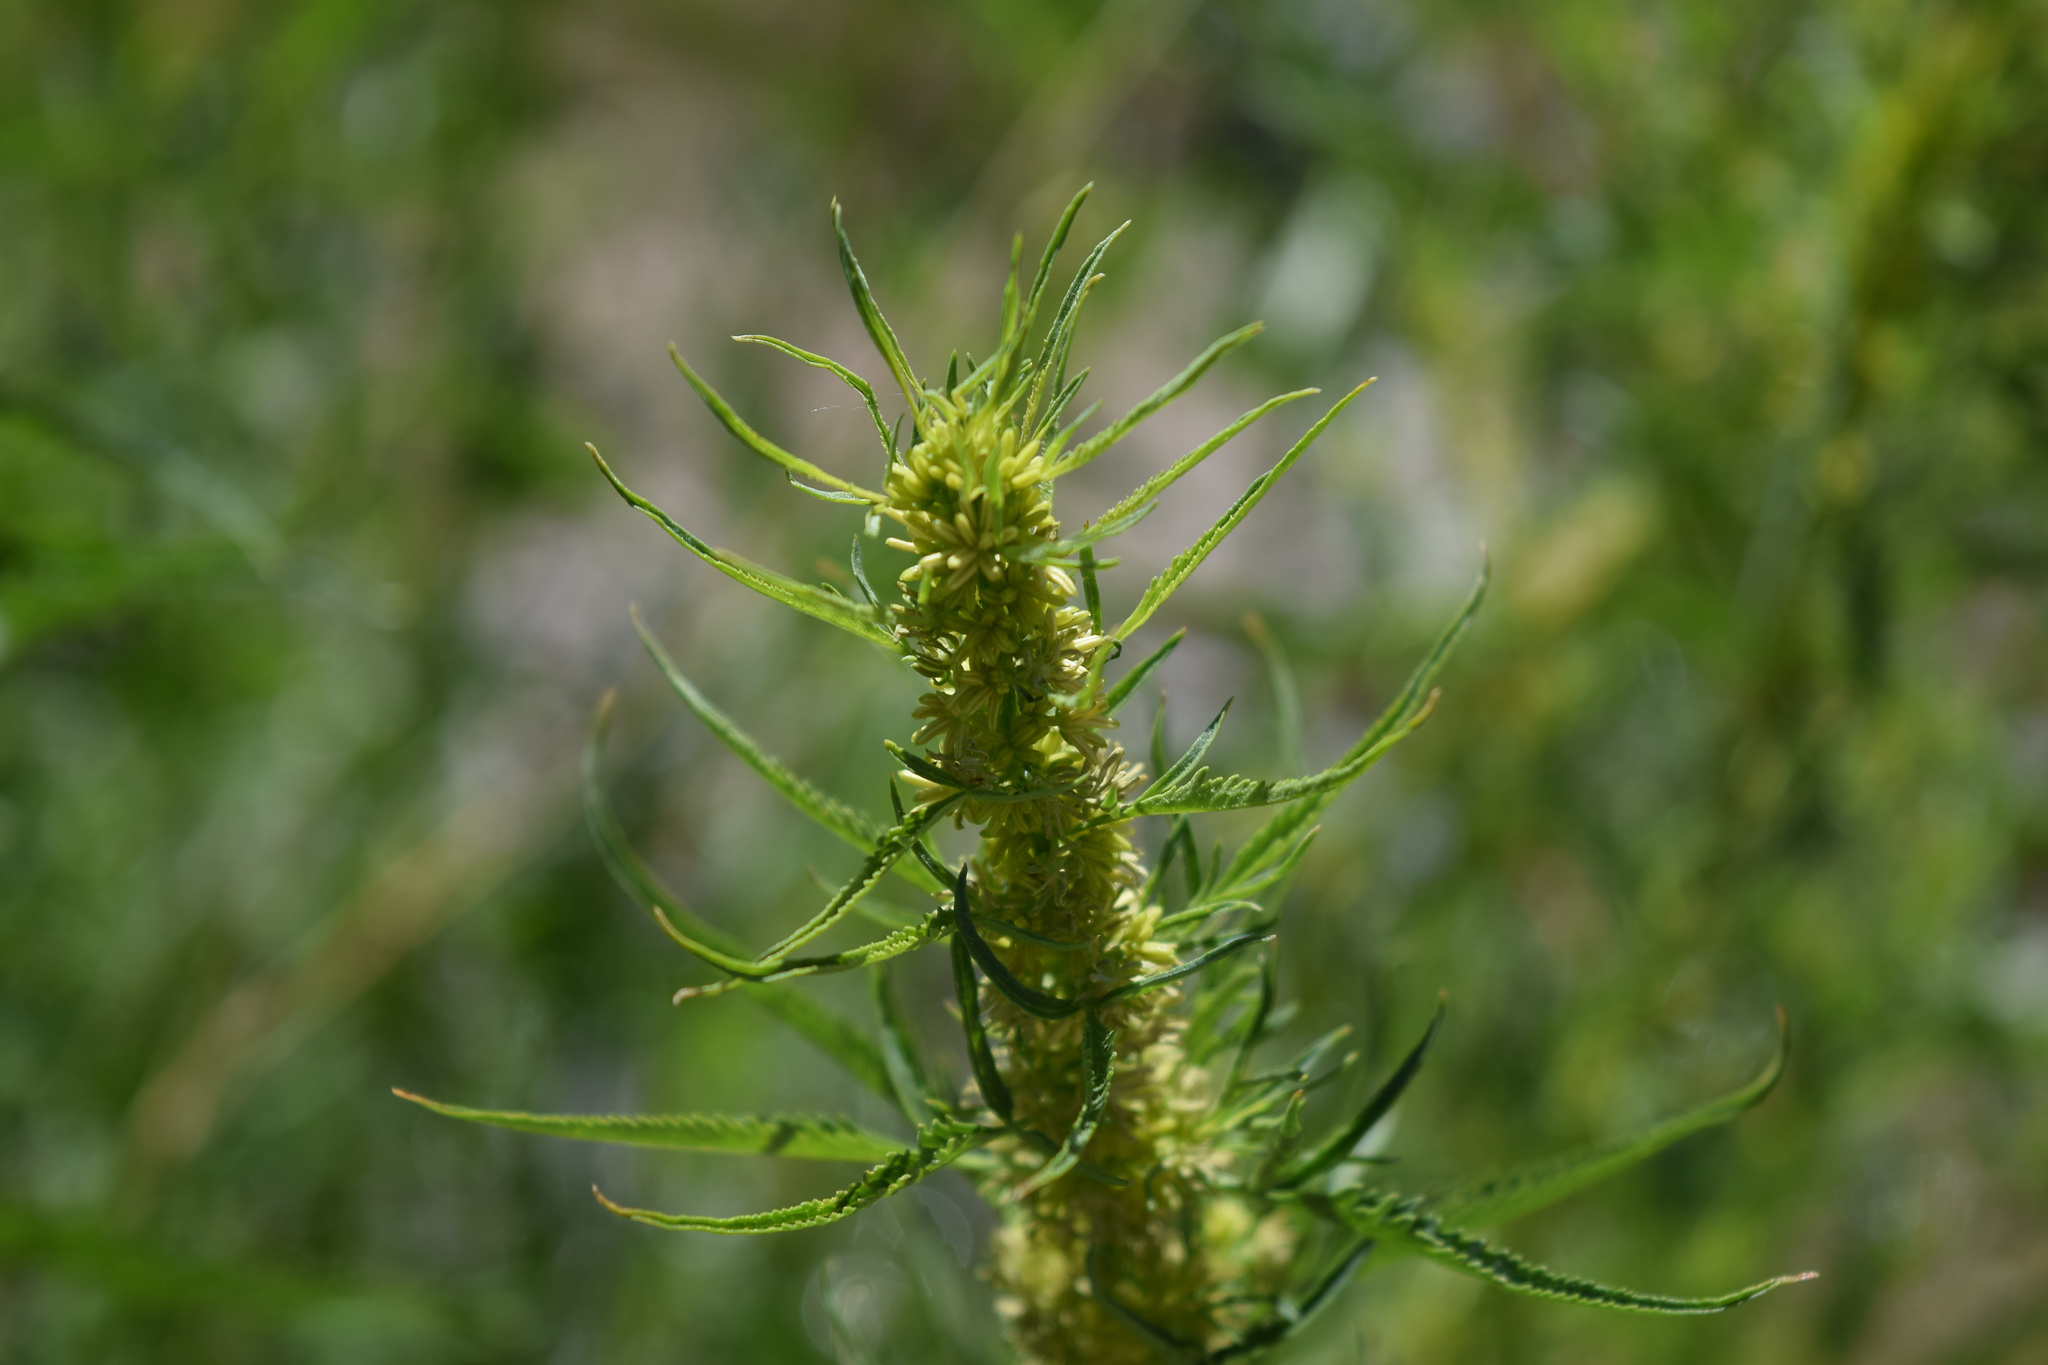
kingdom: Plantae
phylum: Tracheophyta
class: Magnoliopsida
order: Cucurbitales
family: Datiscaceae
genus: Datisca
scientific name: Datisca glomerata
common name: Durango-root
